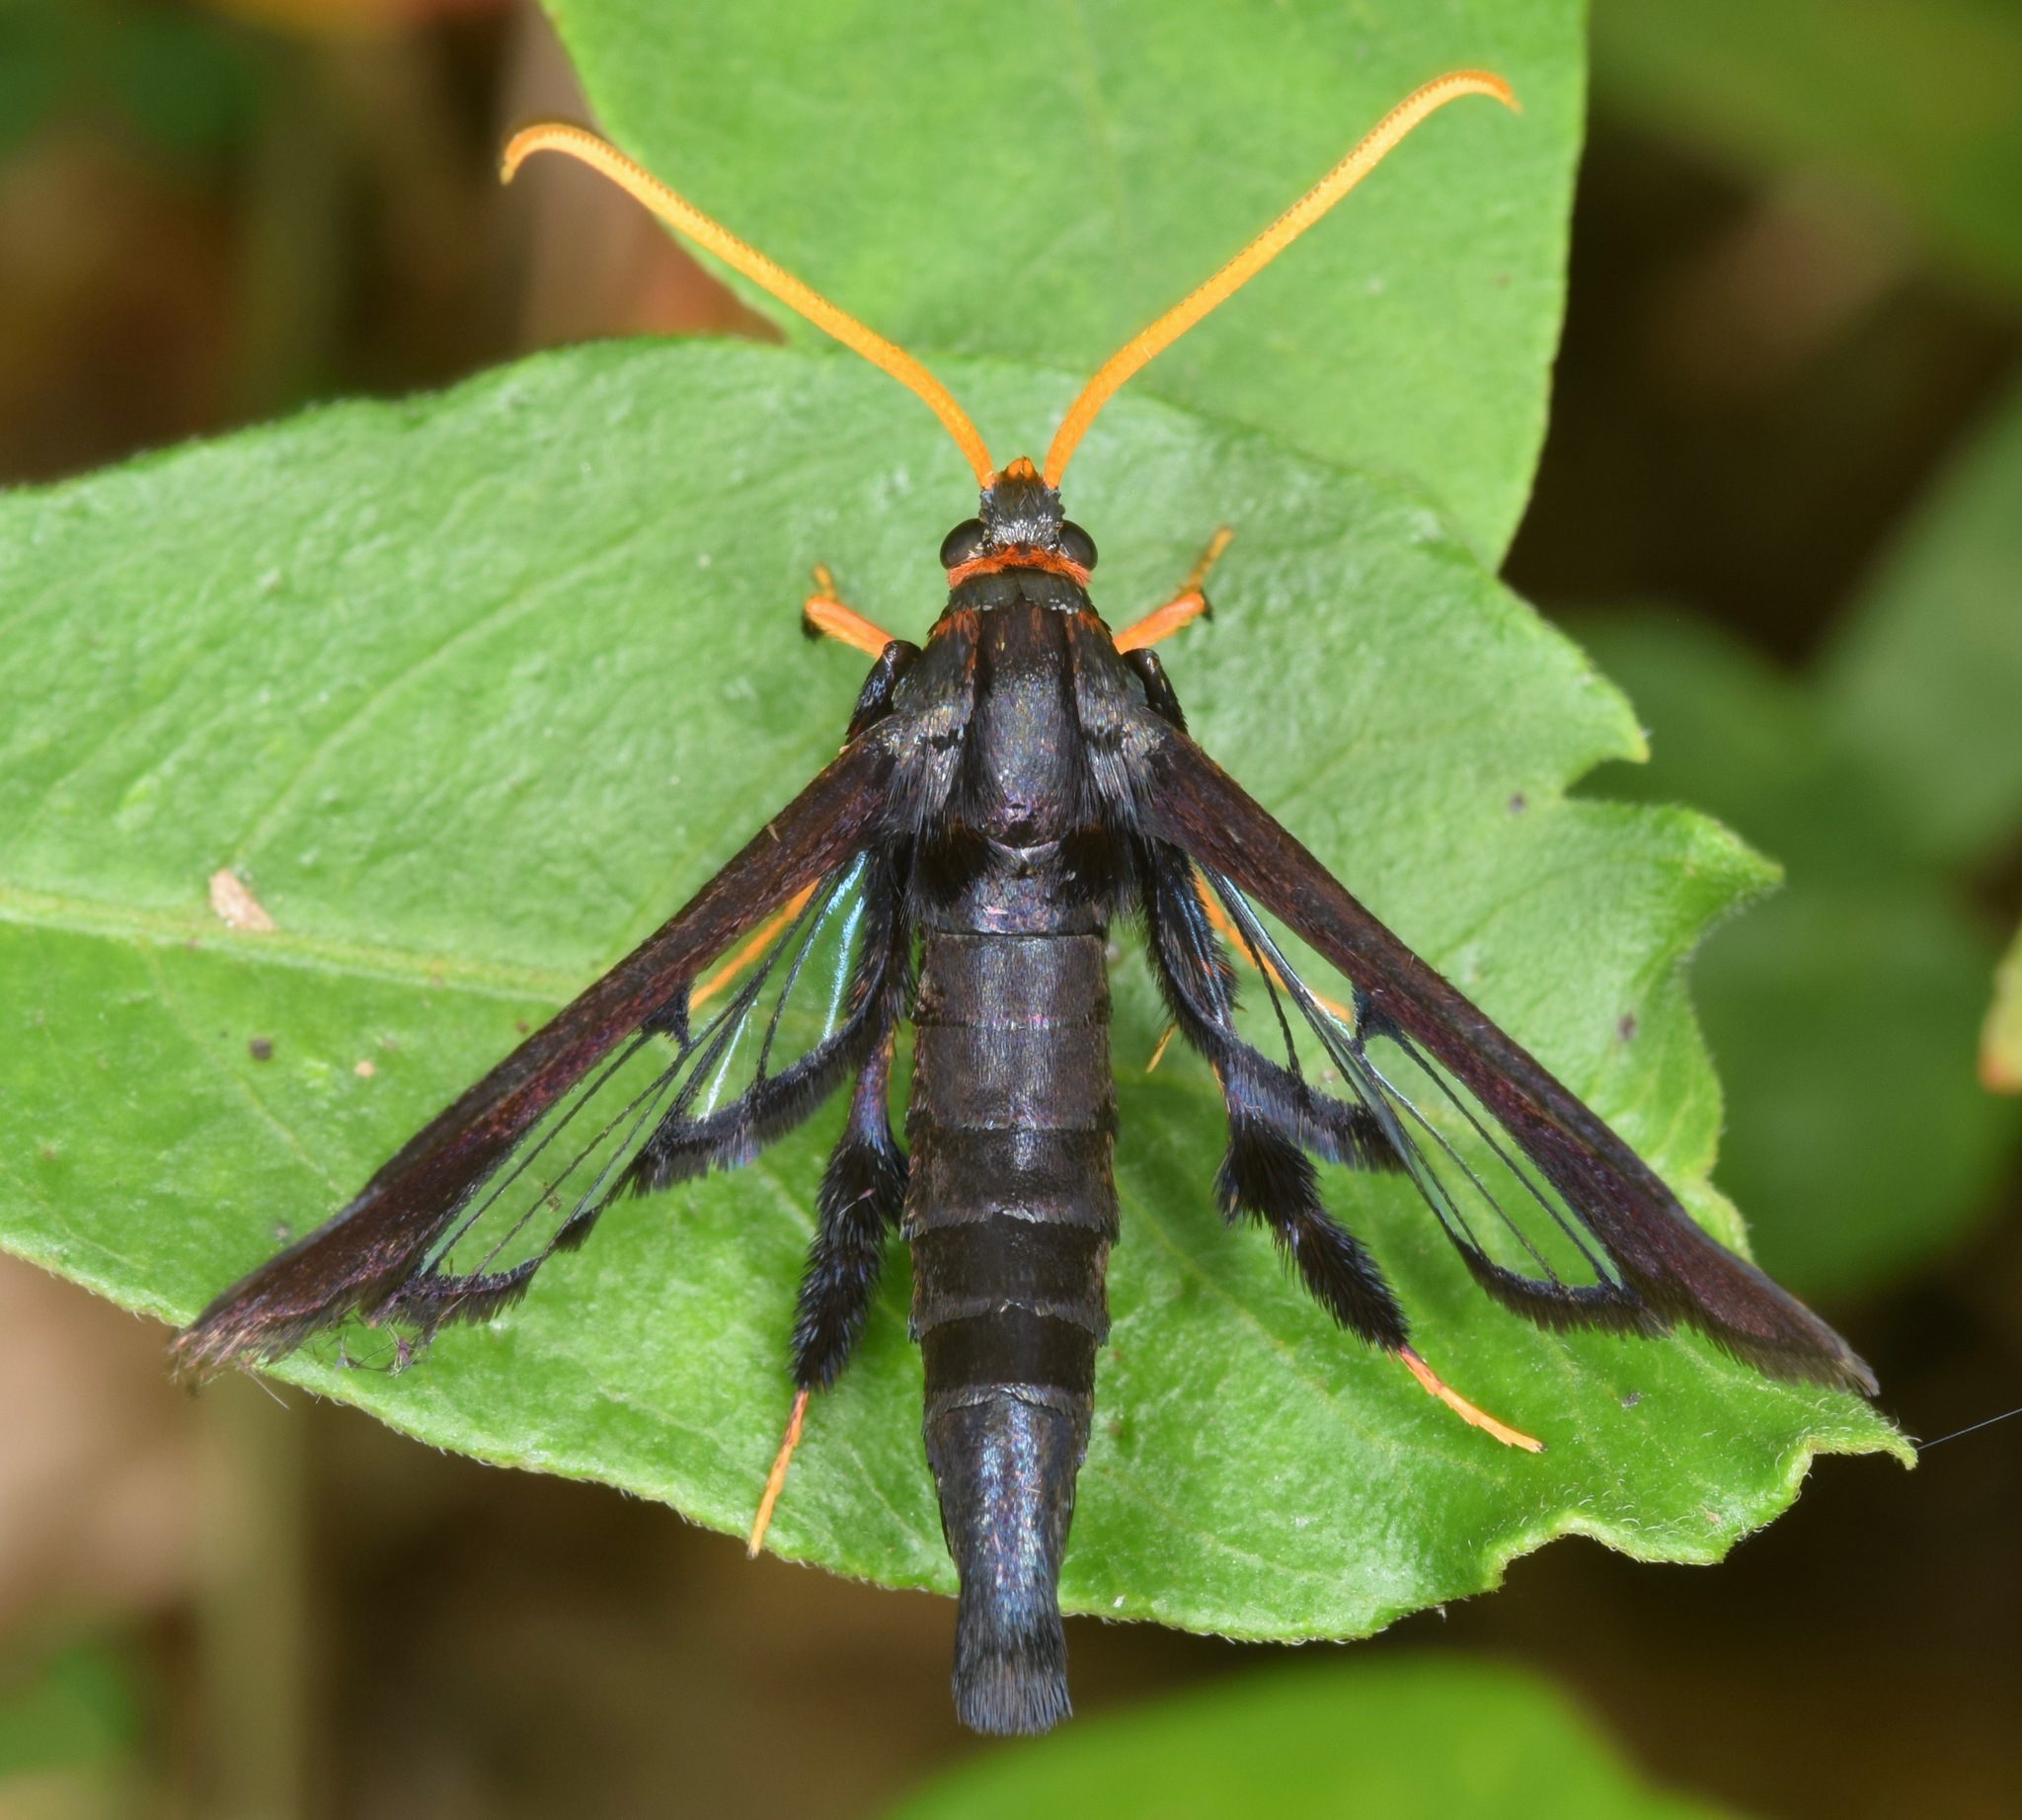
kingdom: Animalia
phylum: Arthropoda
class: Insecta
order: Lepidoptera
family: Sesiidae
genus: Alcathoe
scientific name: Alcathoe caudata
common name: Clematis clearwing moth
